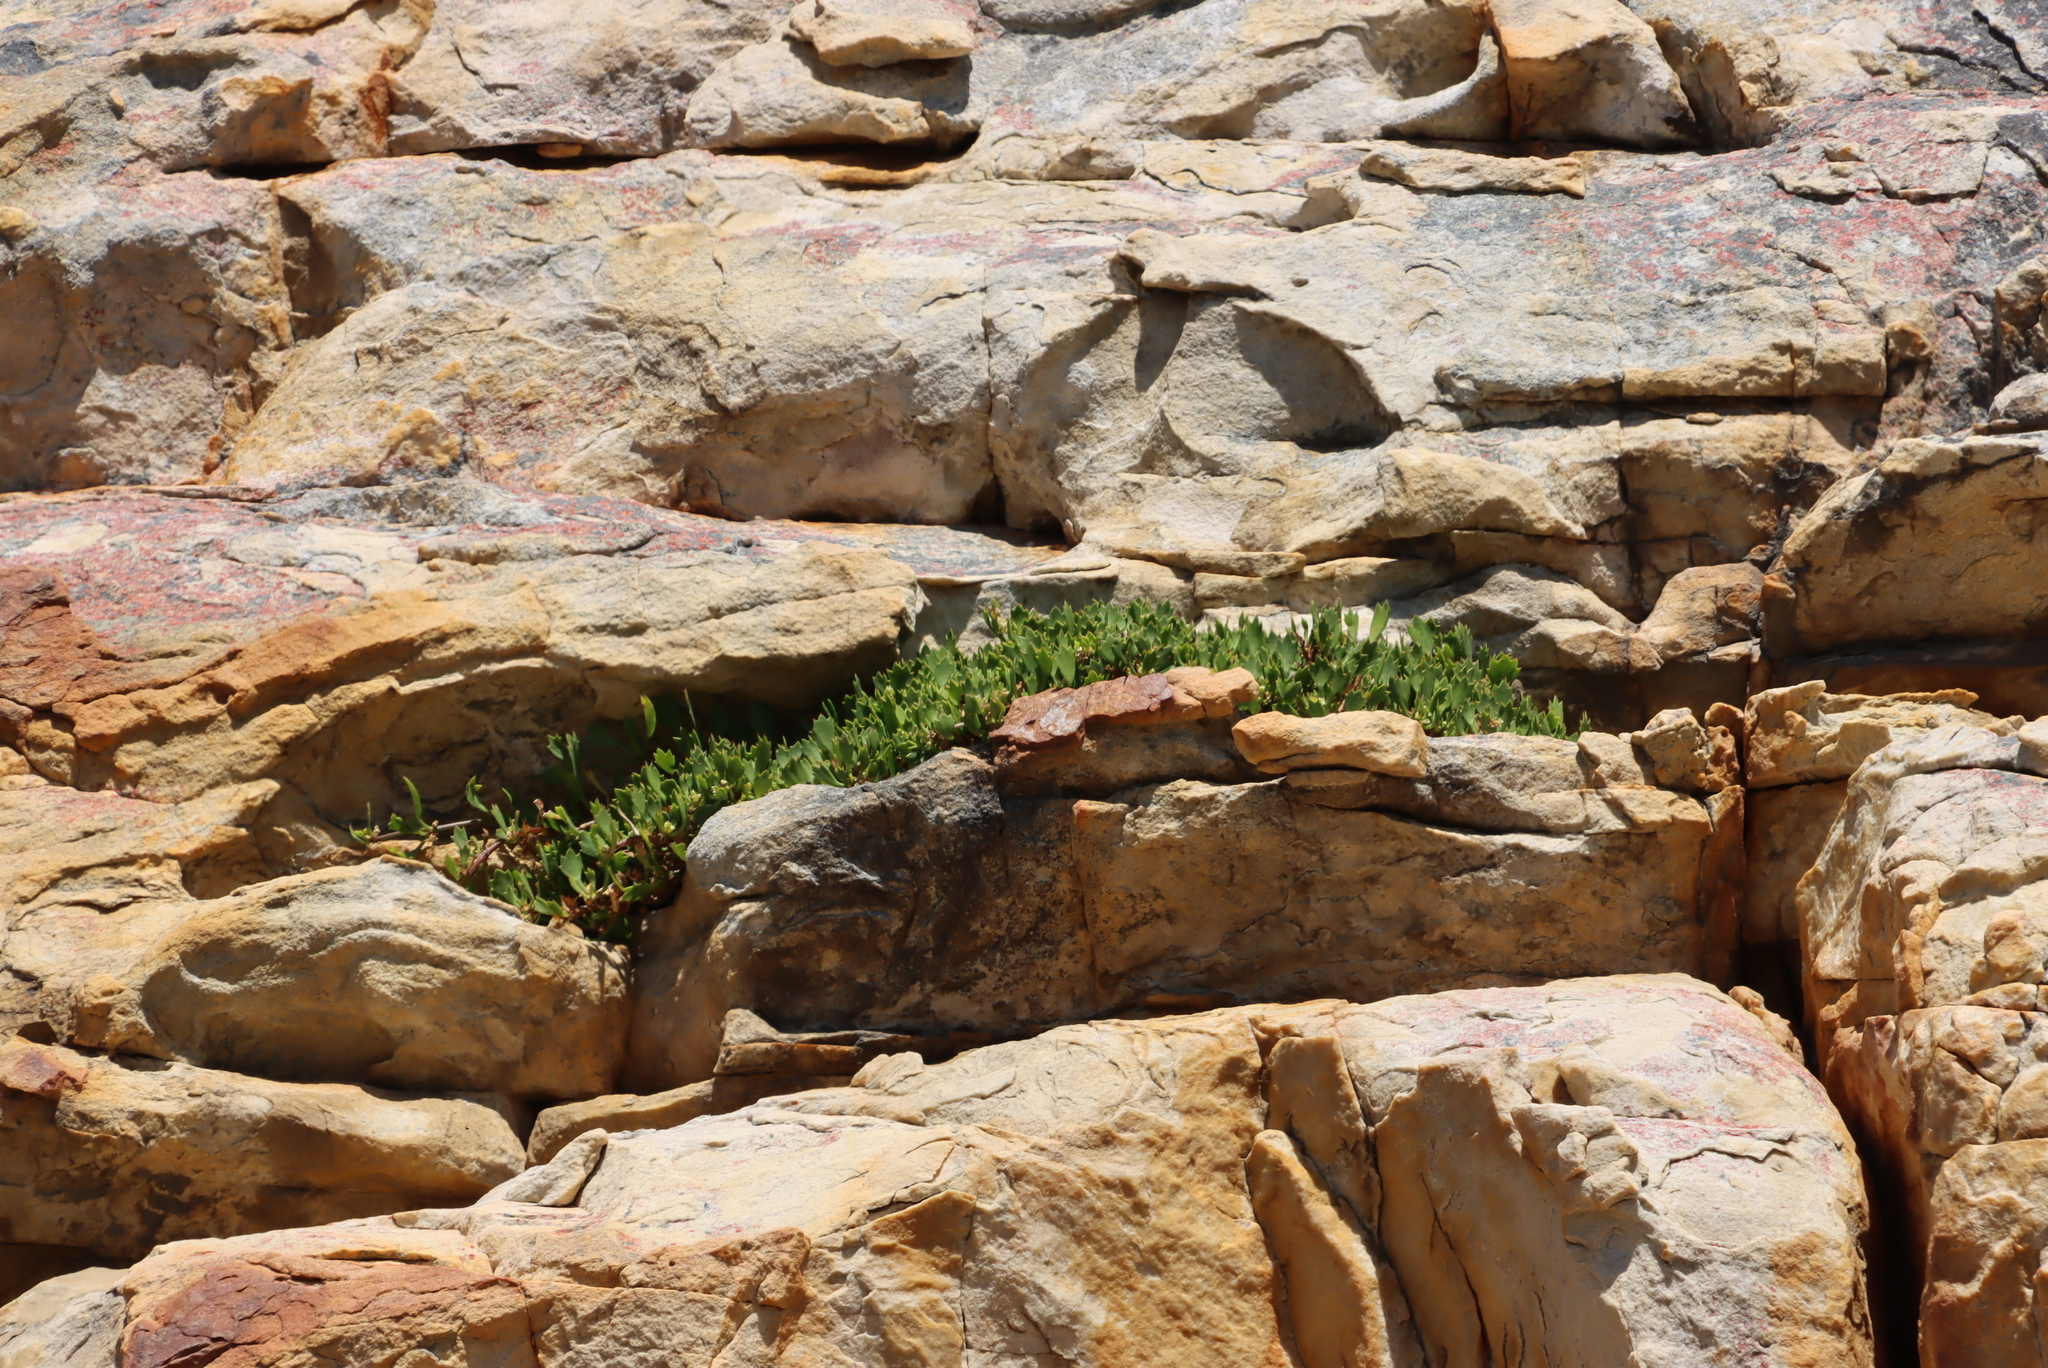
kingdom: Plantae
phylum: Tracheophyta
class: Magnoliopsida
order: Apiales
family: Apiaceae
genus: Centella
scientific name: Centella triloba
